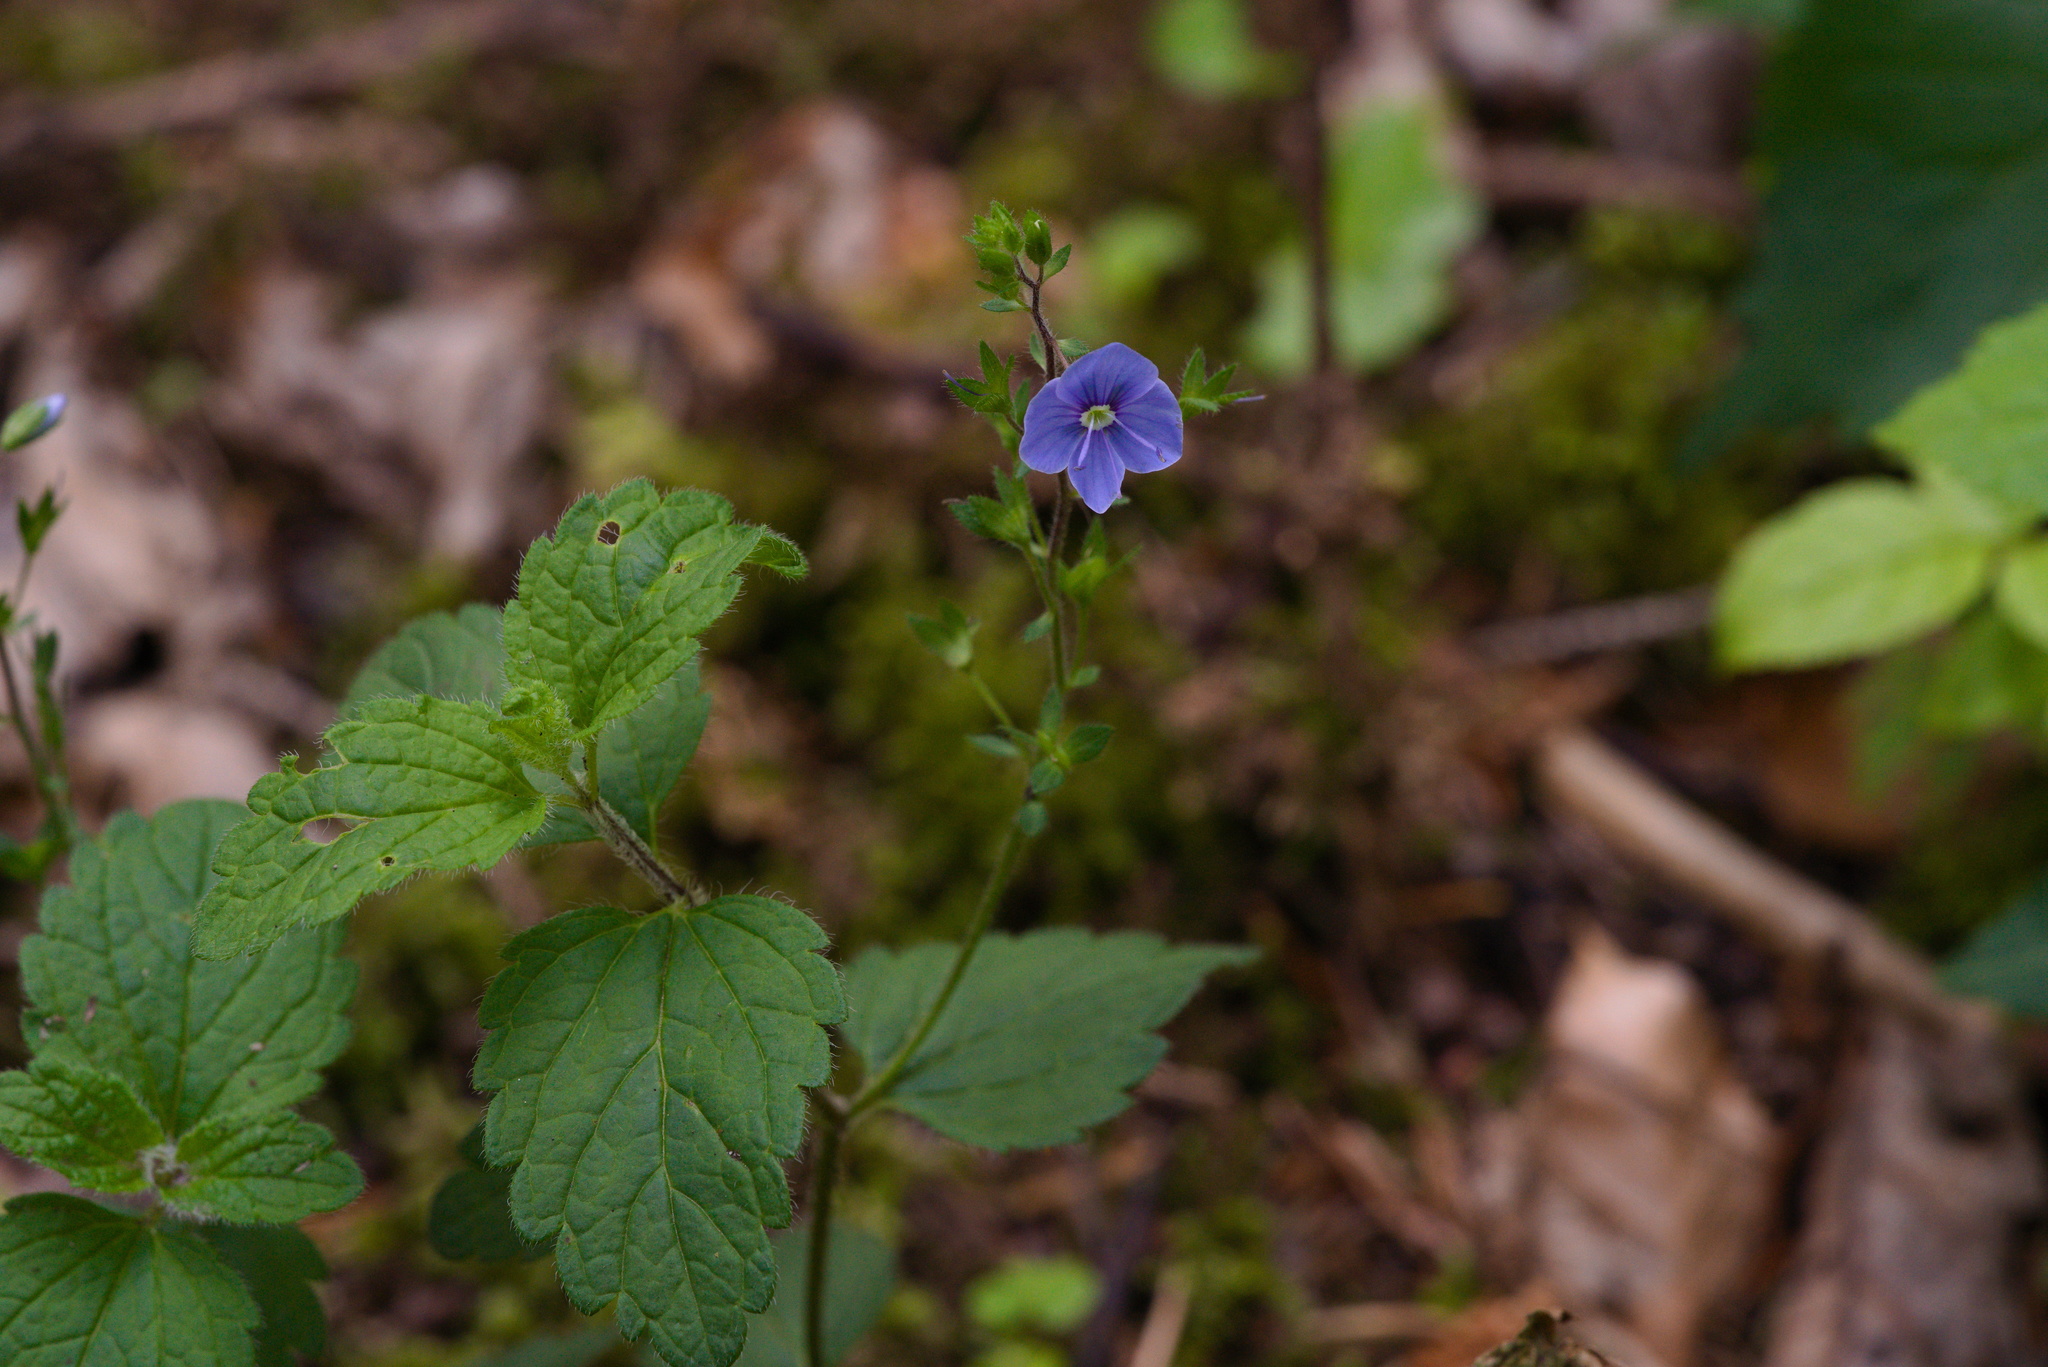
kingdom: Plantae
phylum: Tracheophyta
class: Magnoliopsida
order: Lamiales
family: Plantaginaceae
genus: Veronica
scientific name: Veronica chamaedrys
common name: Germander speedwell
